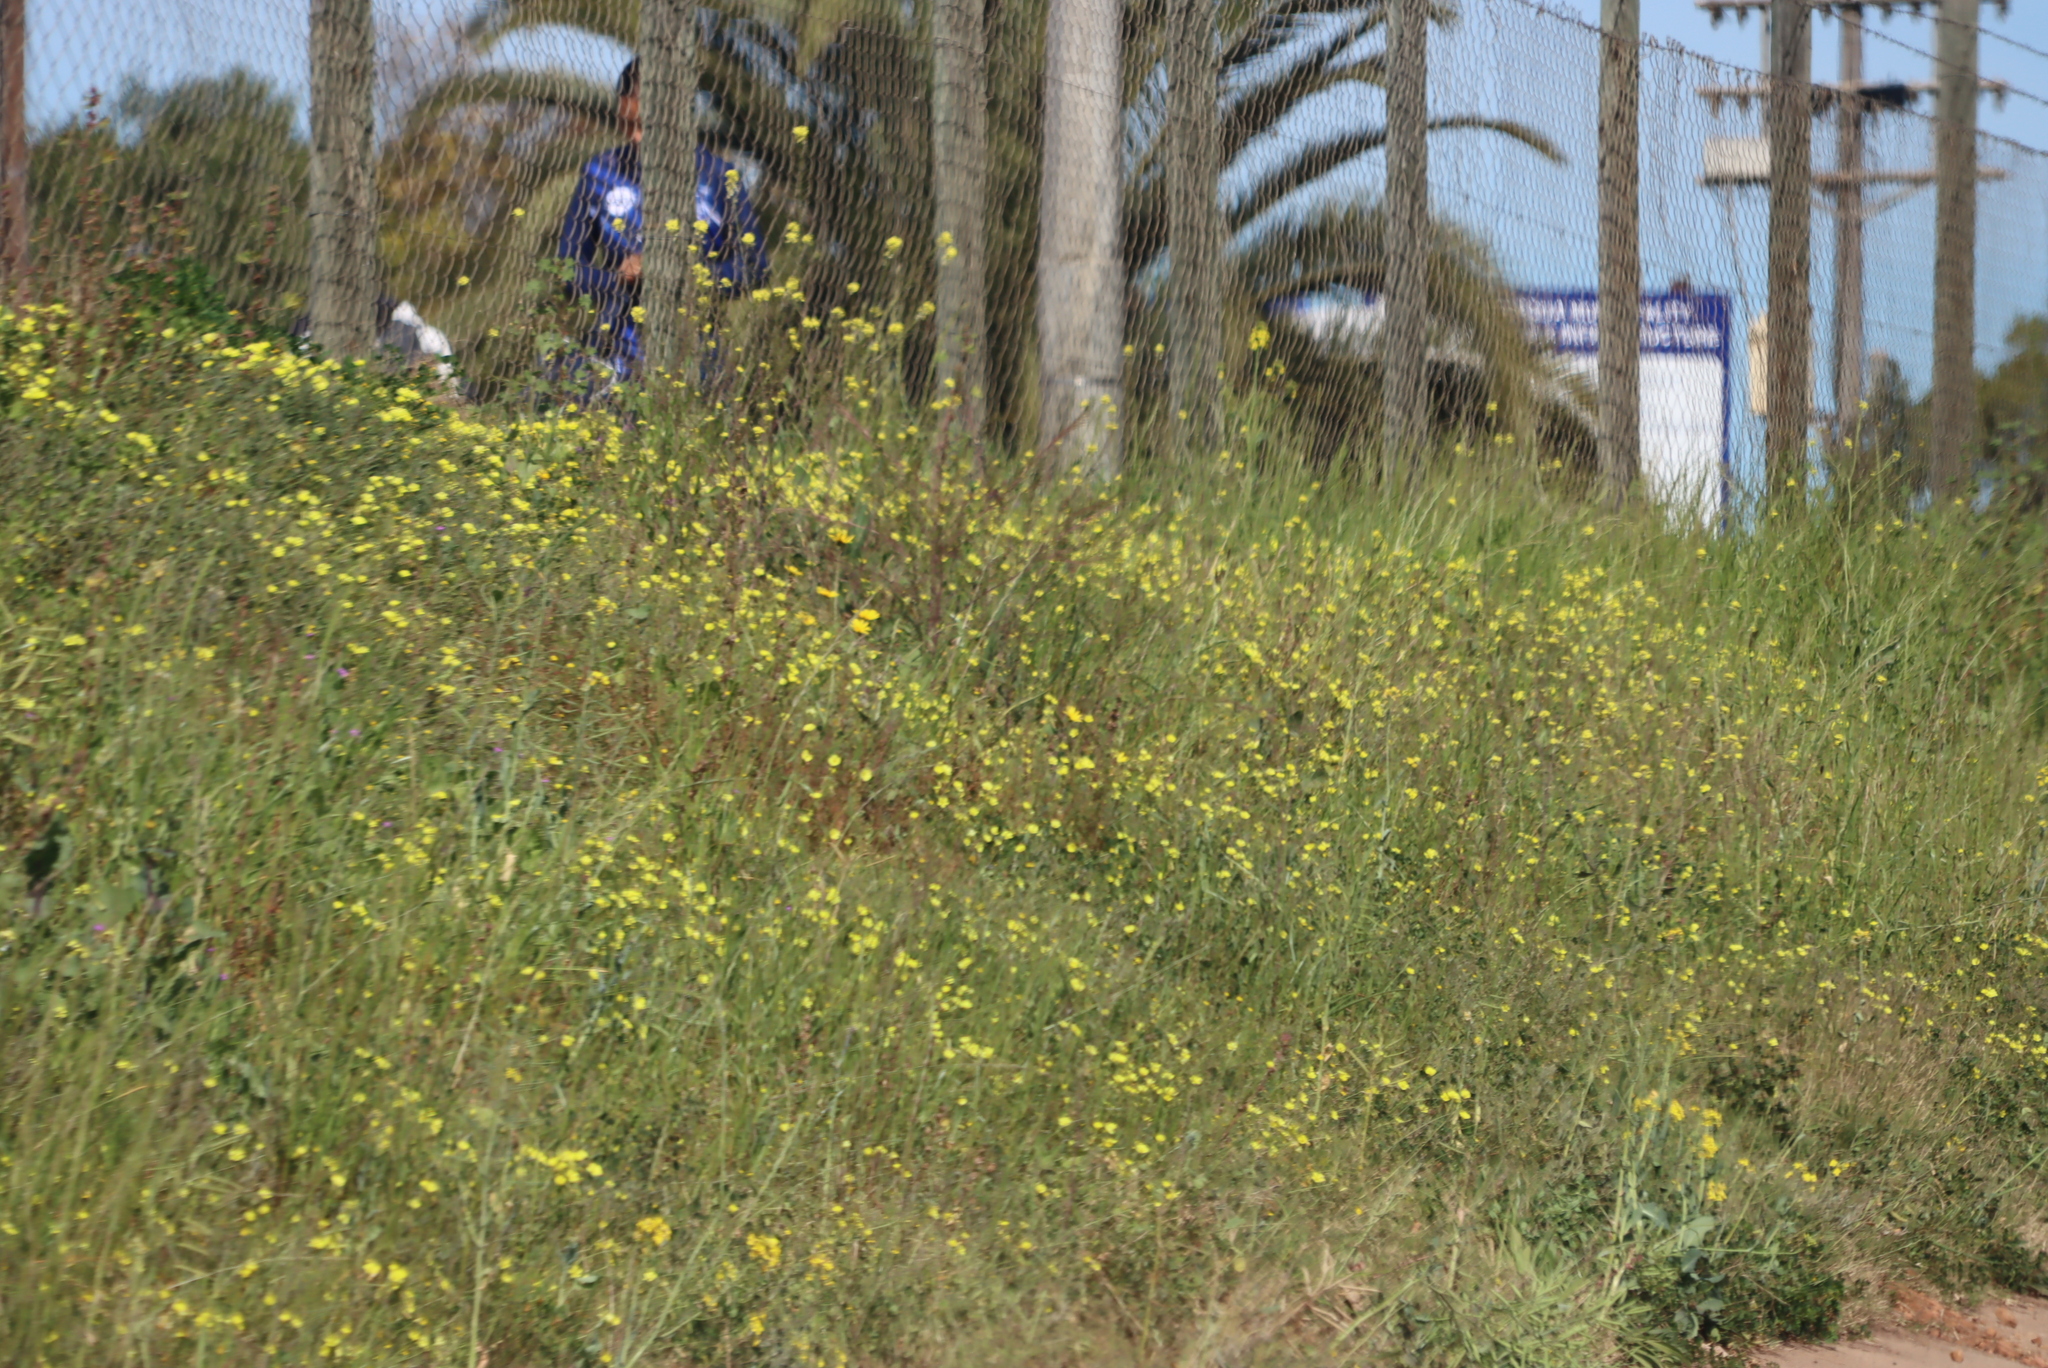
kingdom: Plantae
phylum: Tracheophyta
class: Magnoliopsida
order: Oxalidales
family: Oxalidaceae
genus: Oxalis
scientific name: Oxalis pes-caprae
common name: Bermuda-buttercup
